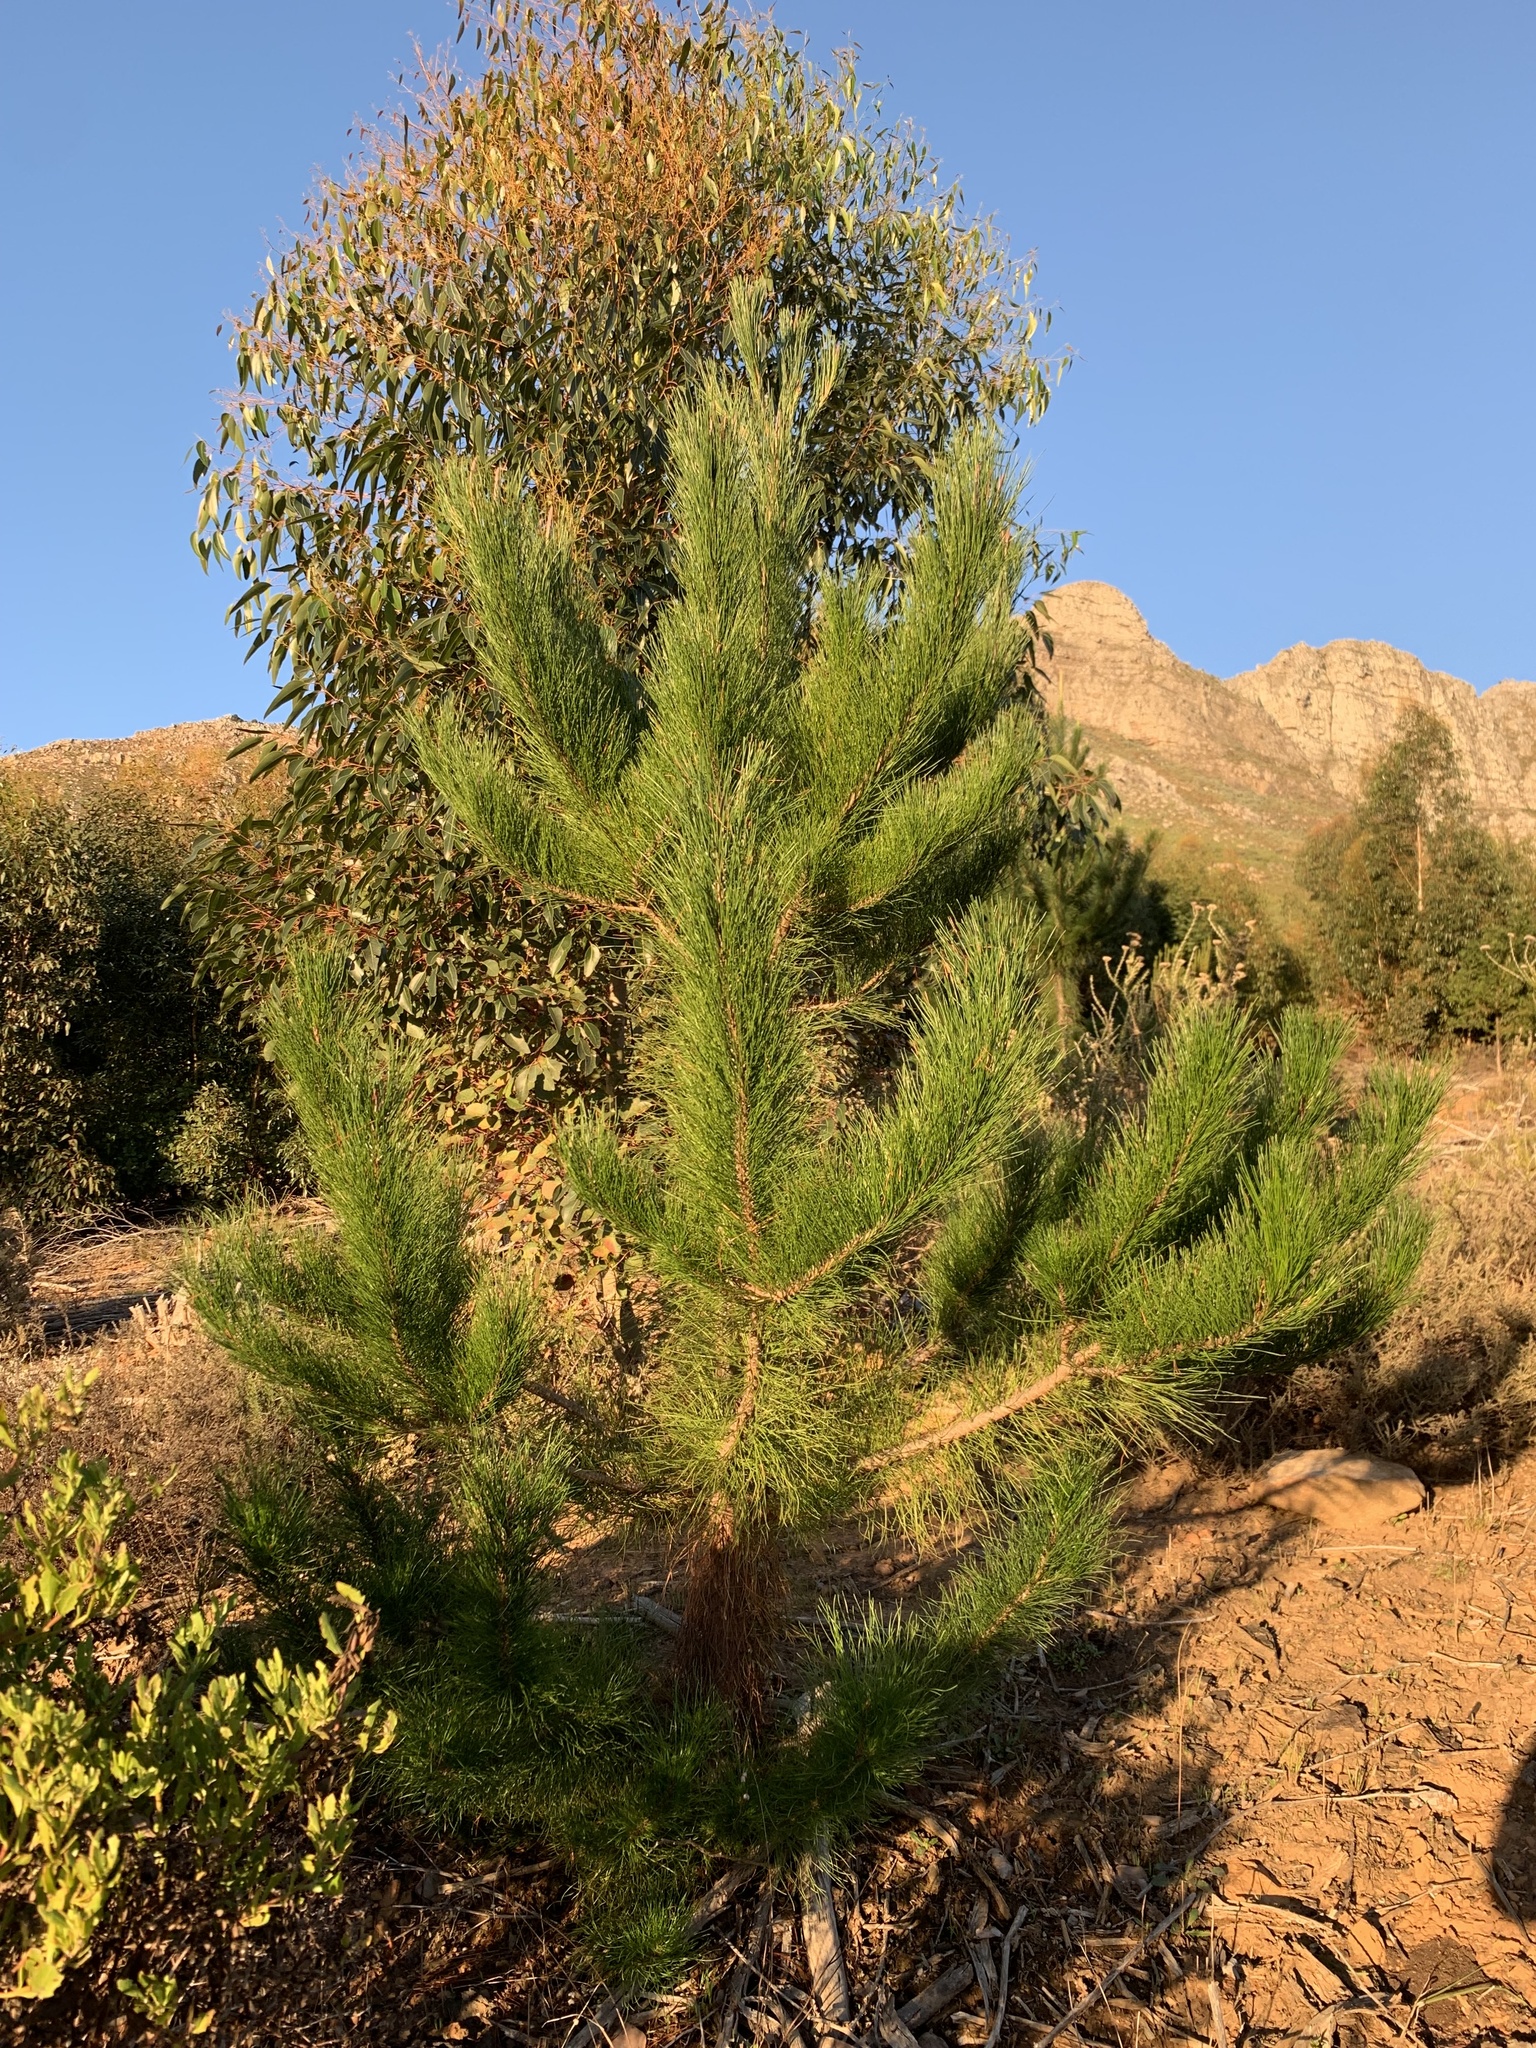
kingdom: Plantae
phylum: Tracheophyta
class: Pinopsida
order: Pinales
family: Pinaceae
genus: Pinus
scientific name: Pinus radiata
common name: Monterey pine
